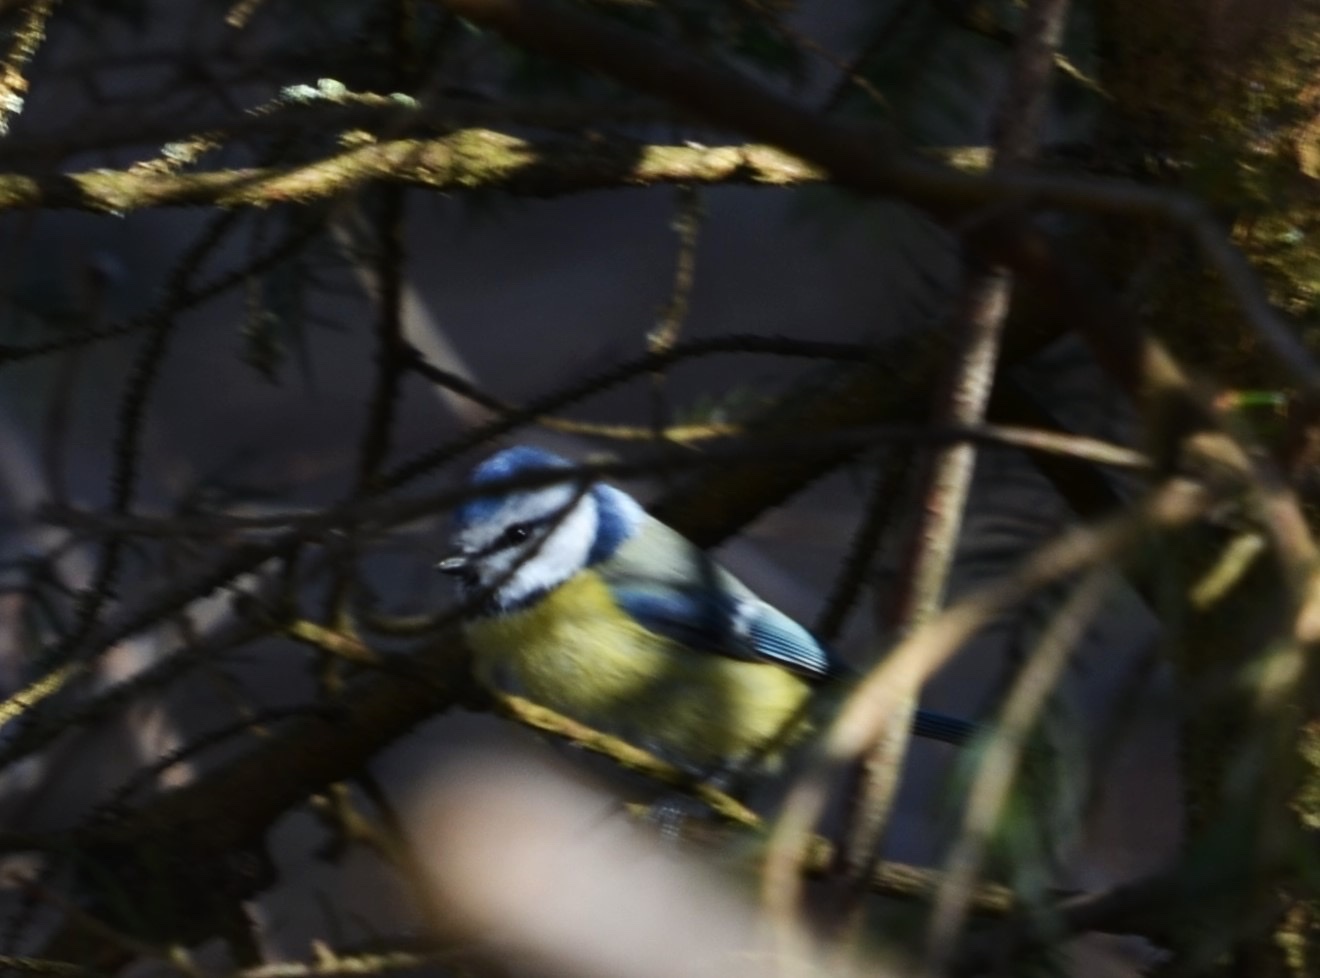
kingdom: Animalia
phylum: Chordata
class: Aves
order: Passeriformes
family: Paridae
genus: Cyanistes
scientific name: Cyanistes caeruleus
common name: Eurasian blue tit
